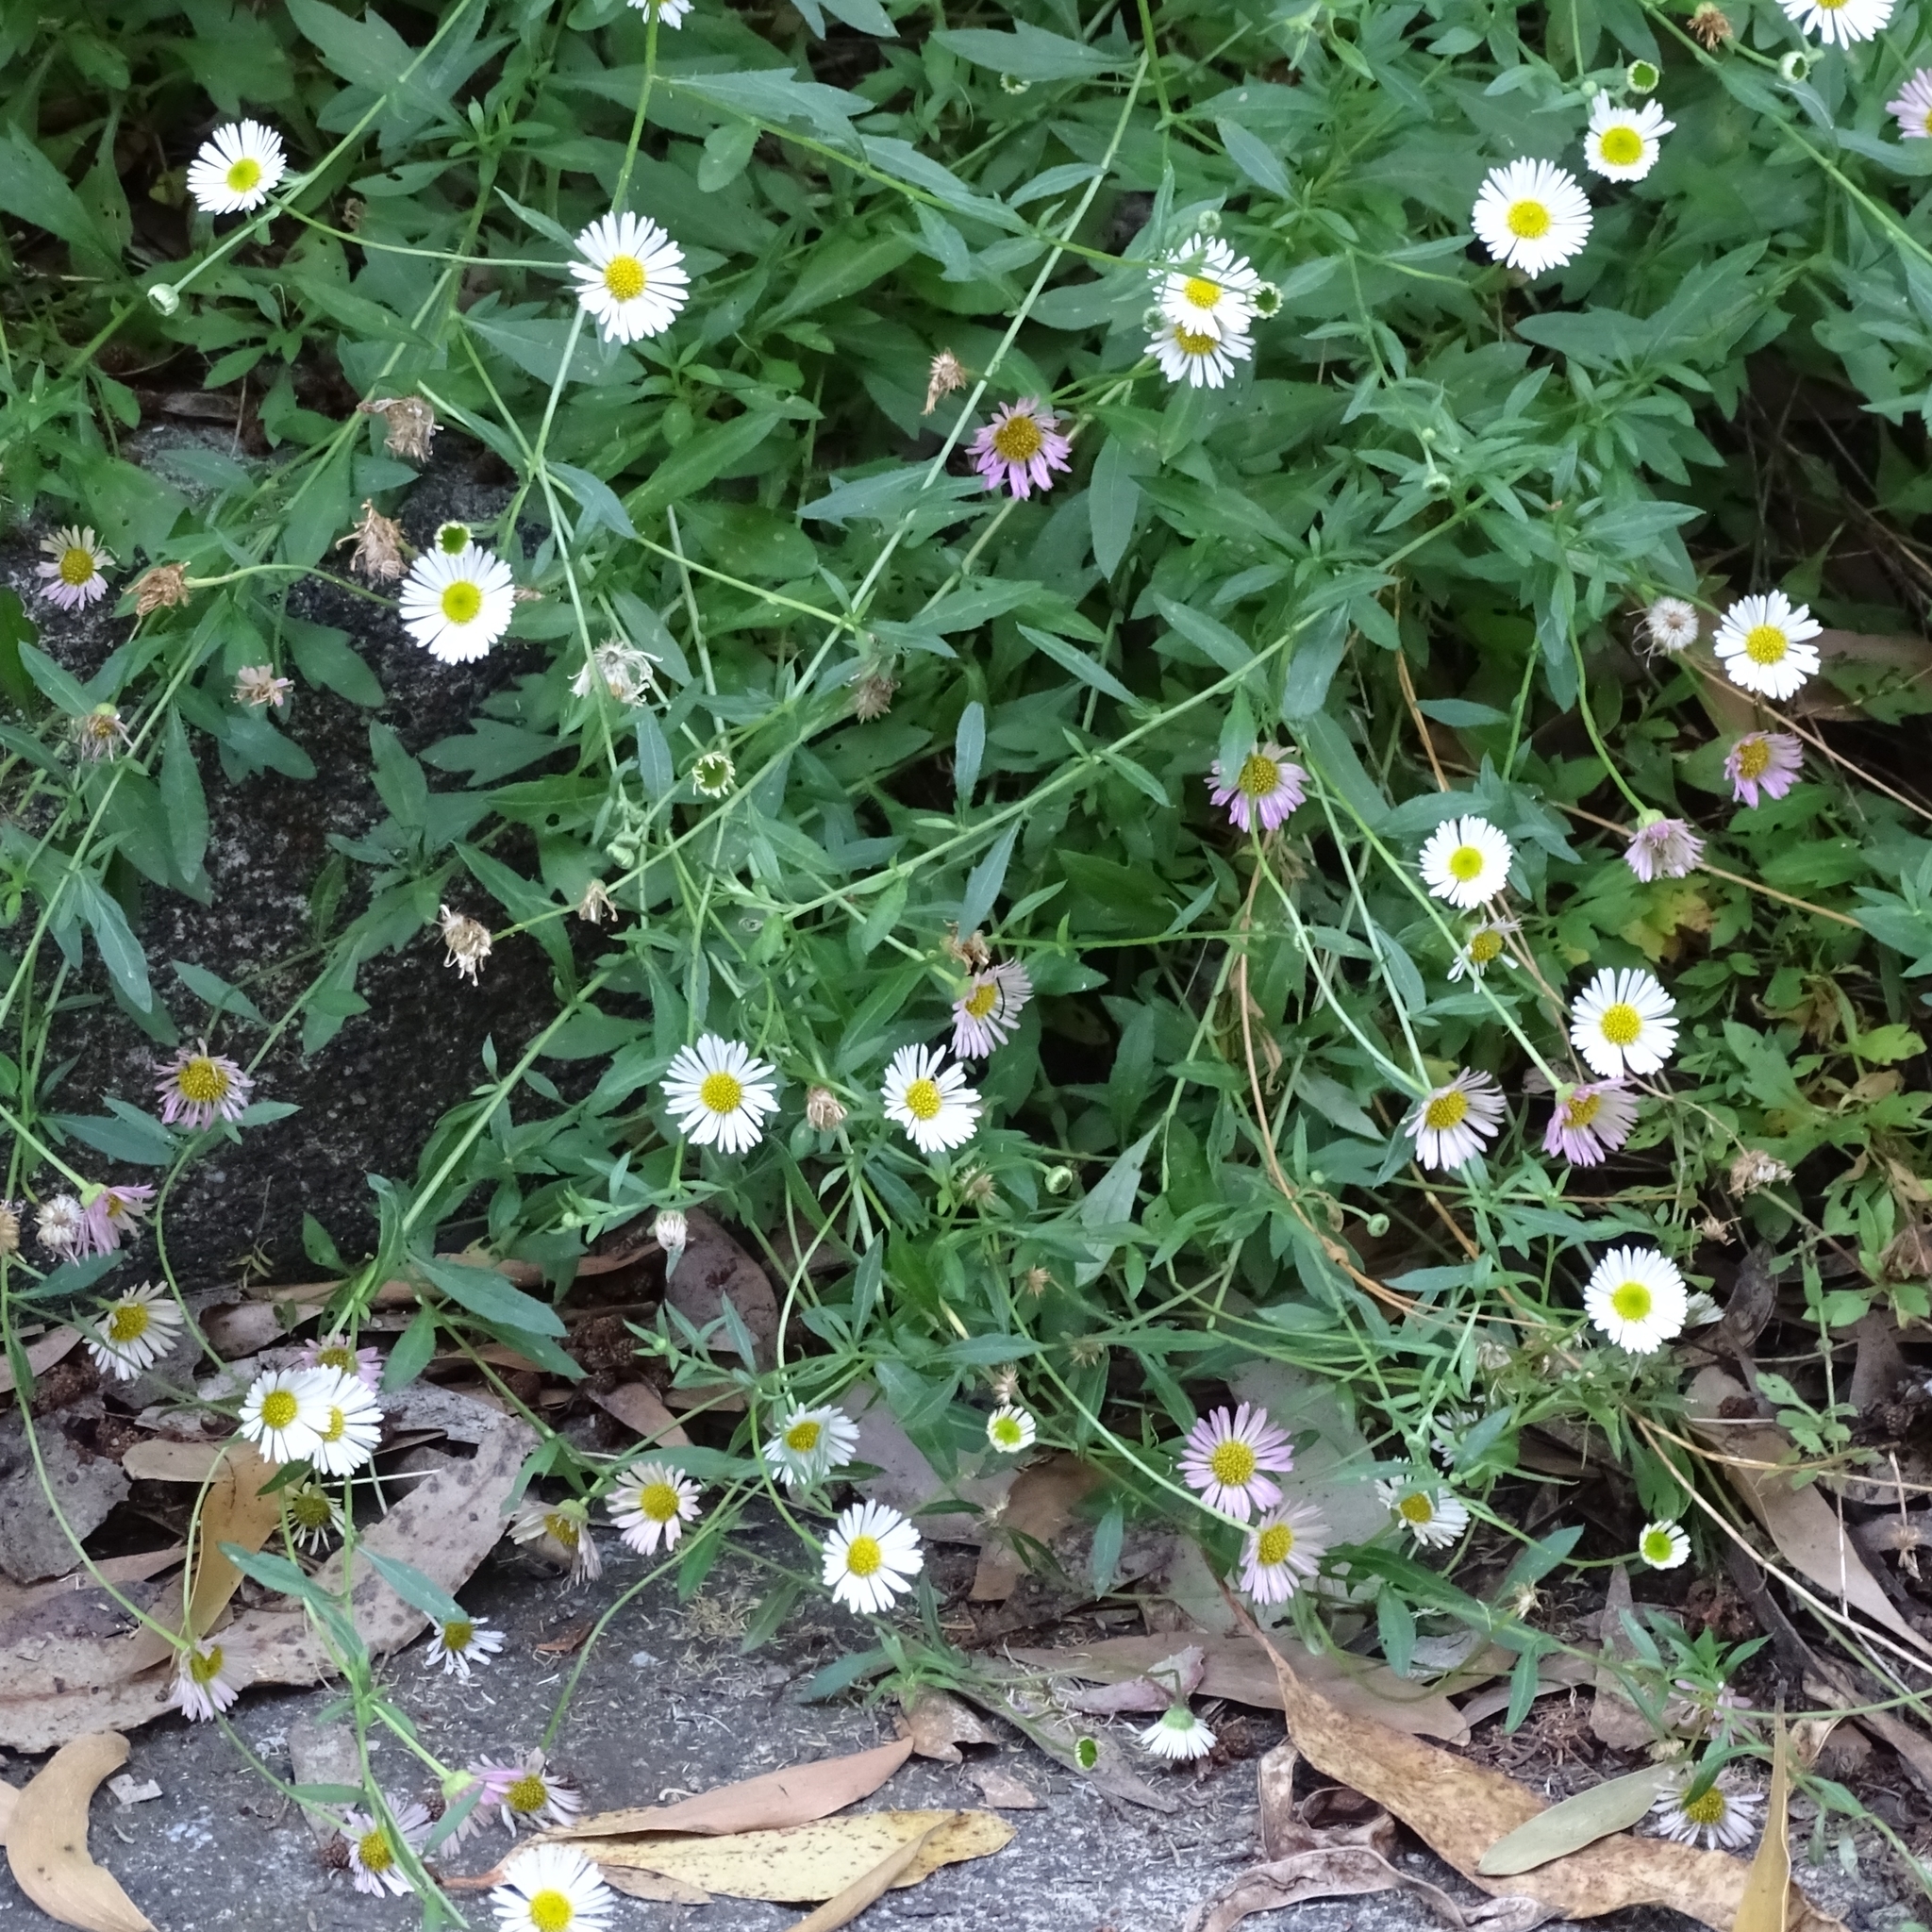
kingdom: Plantae
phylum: Tracheophyta
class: Magnoliopsida
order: Asterales
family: Asteraceae
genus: Erigeron
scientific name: Erigeron karvinskianus
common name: Mexican fleabane
